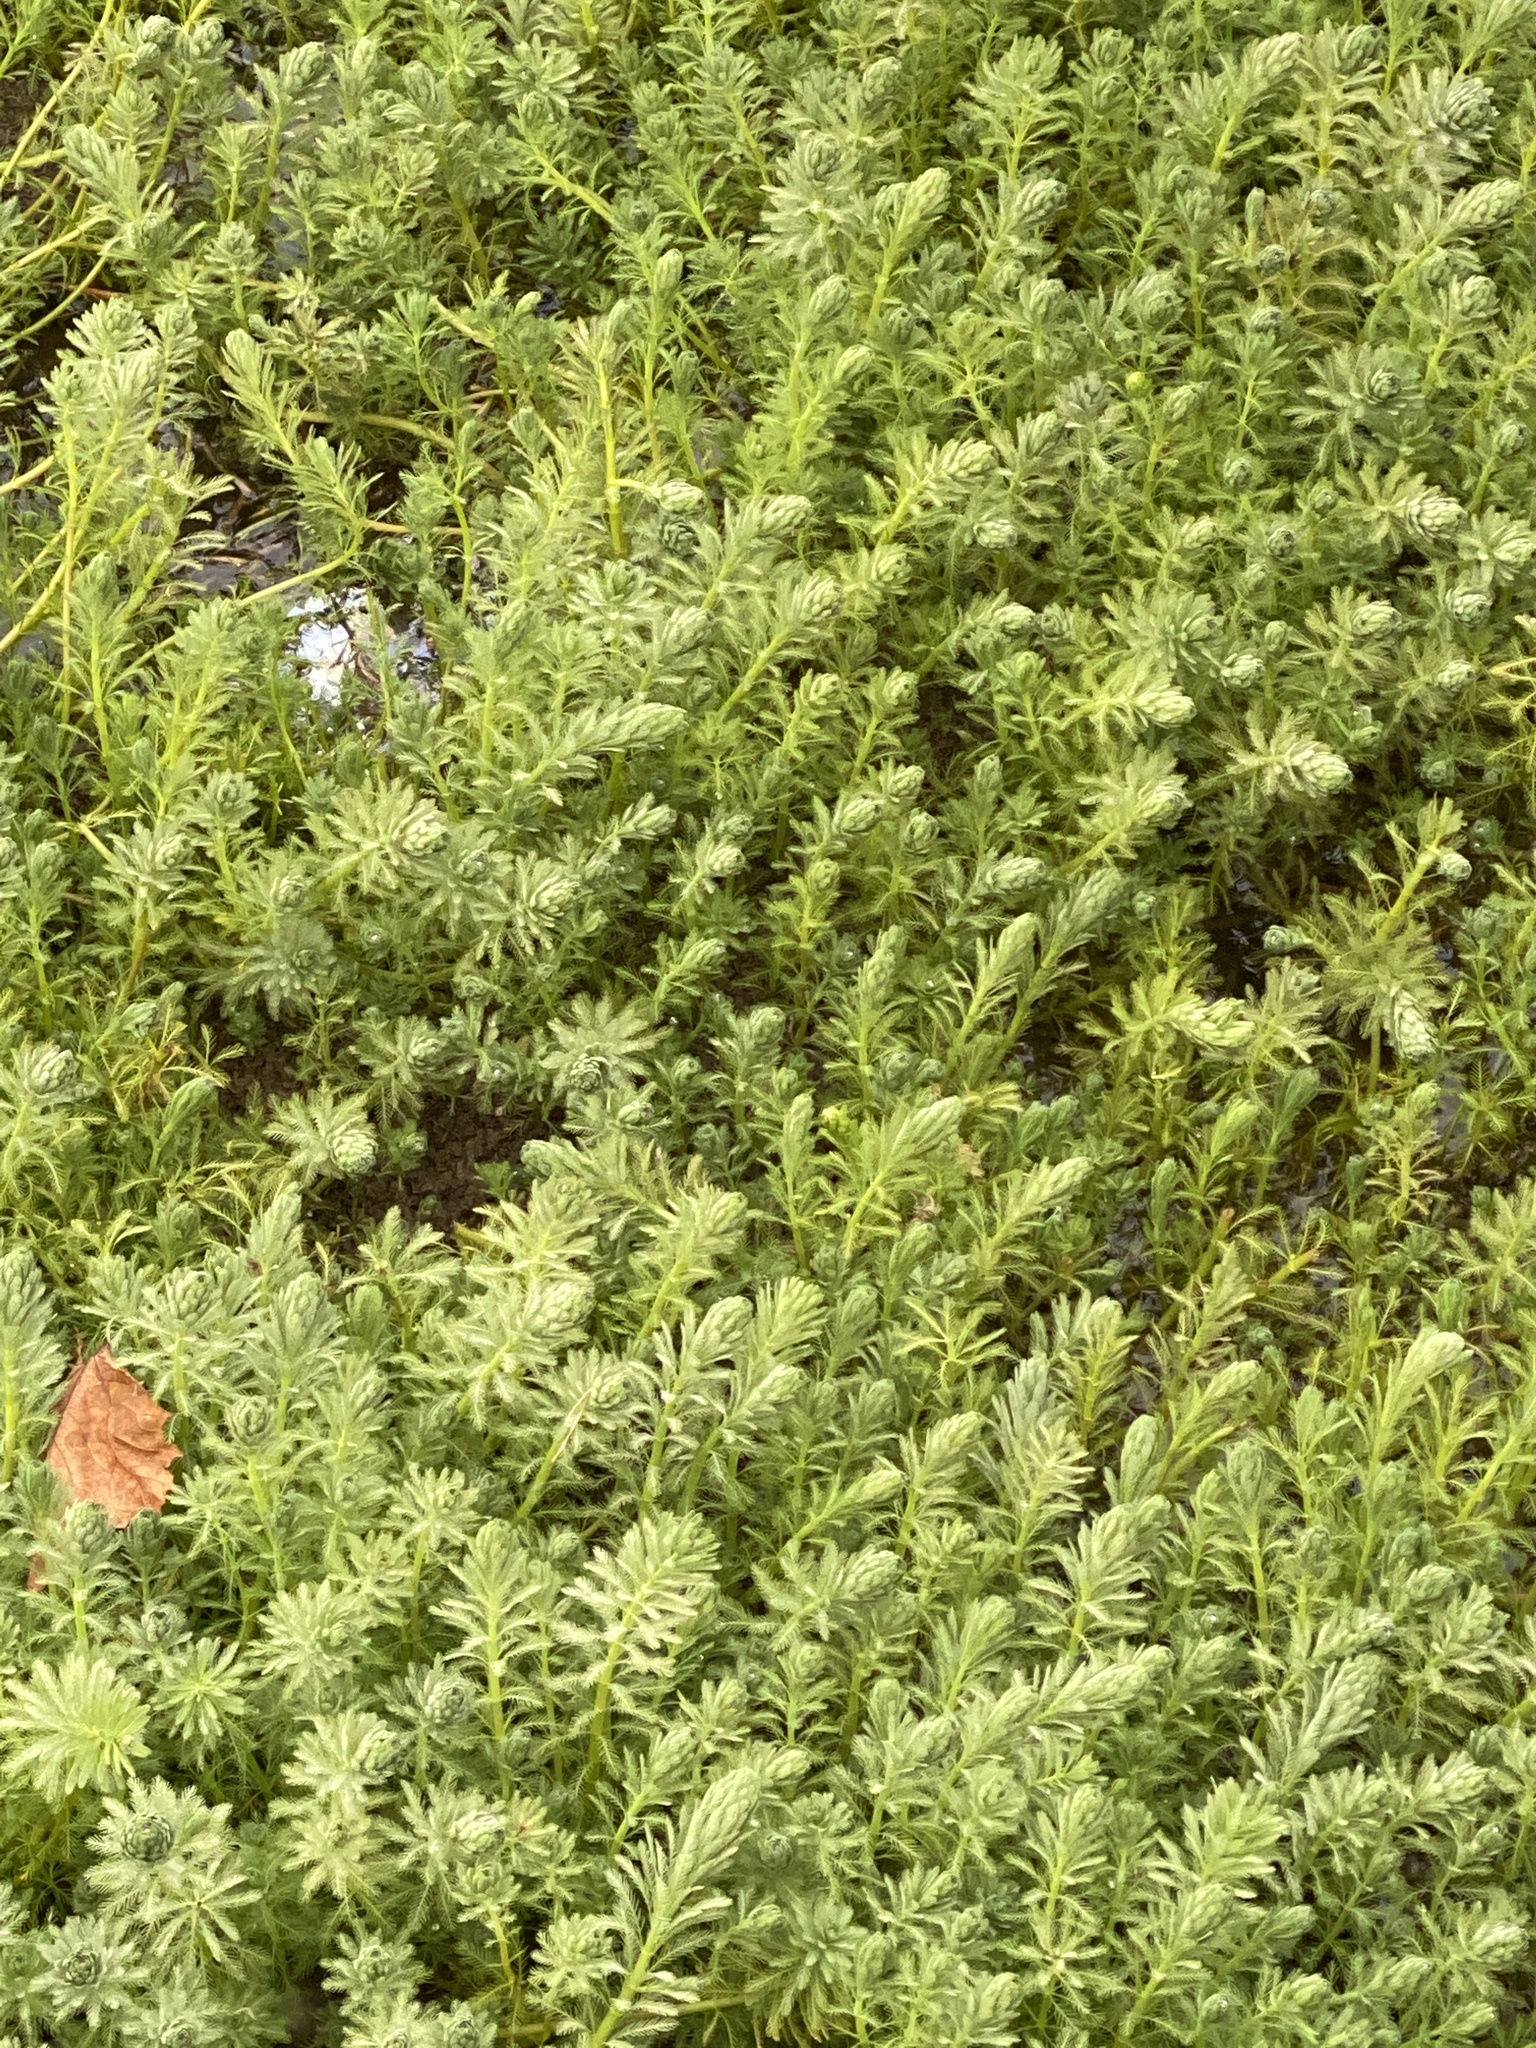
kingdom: Plantae
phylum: Tracheophyta
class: Magnoliopsida
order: Saxifragales
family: Haloragaceae
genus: Myriophyllum
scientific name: Myriophyllum aquaticum
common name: Parrot's feather
